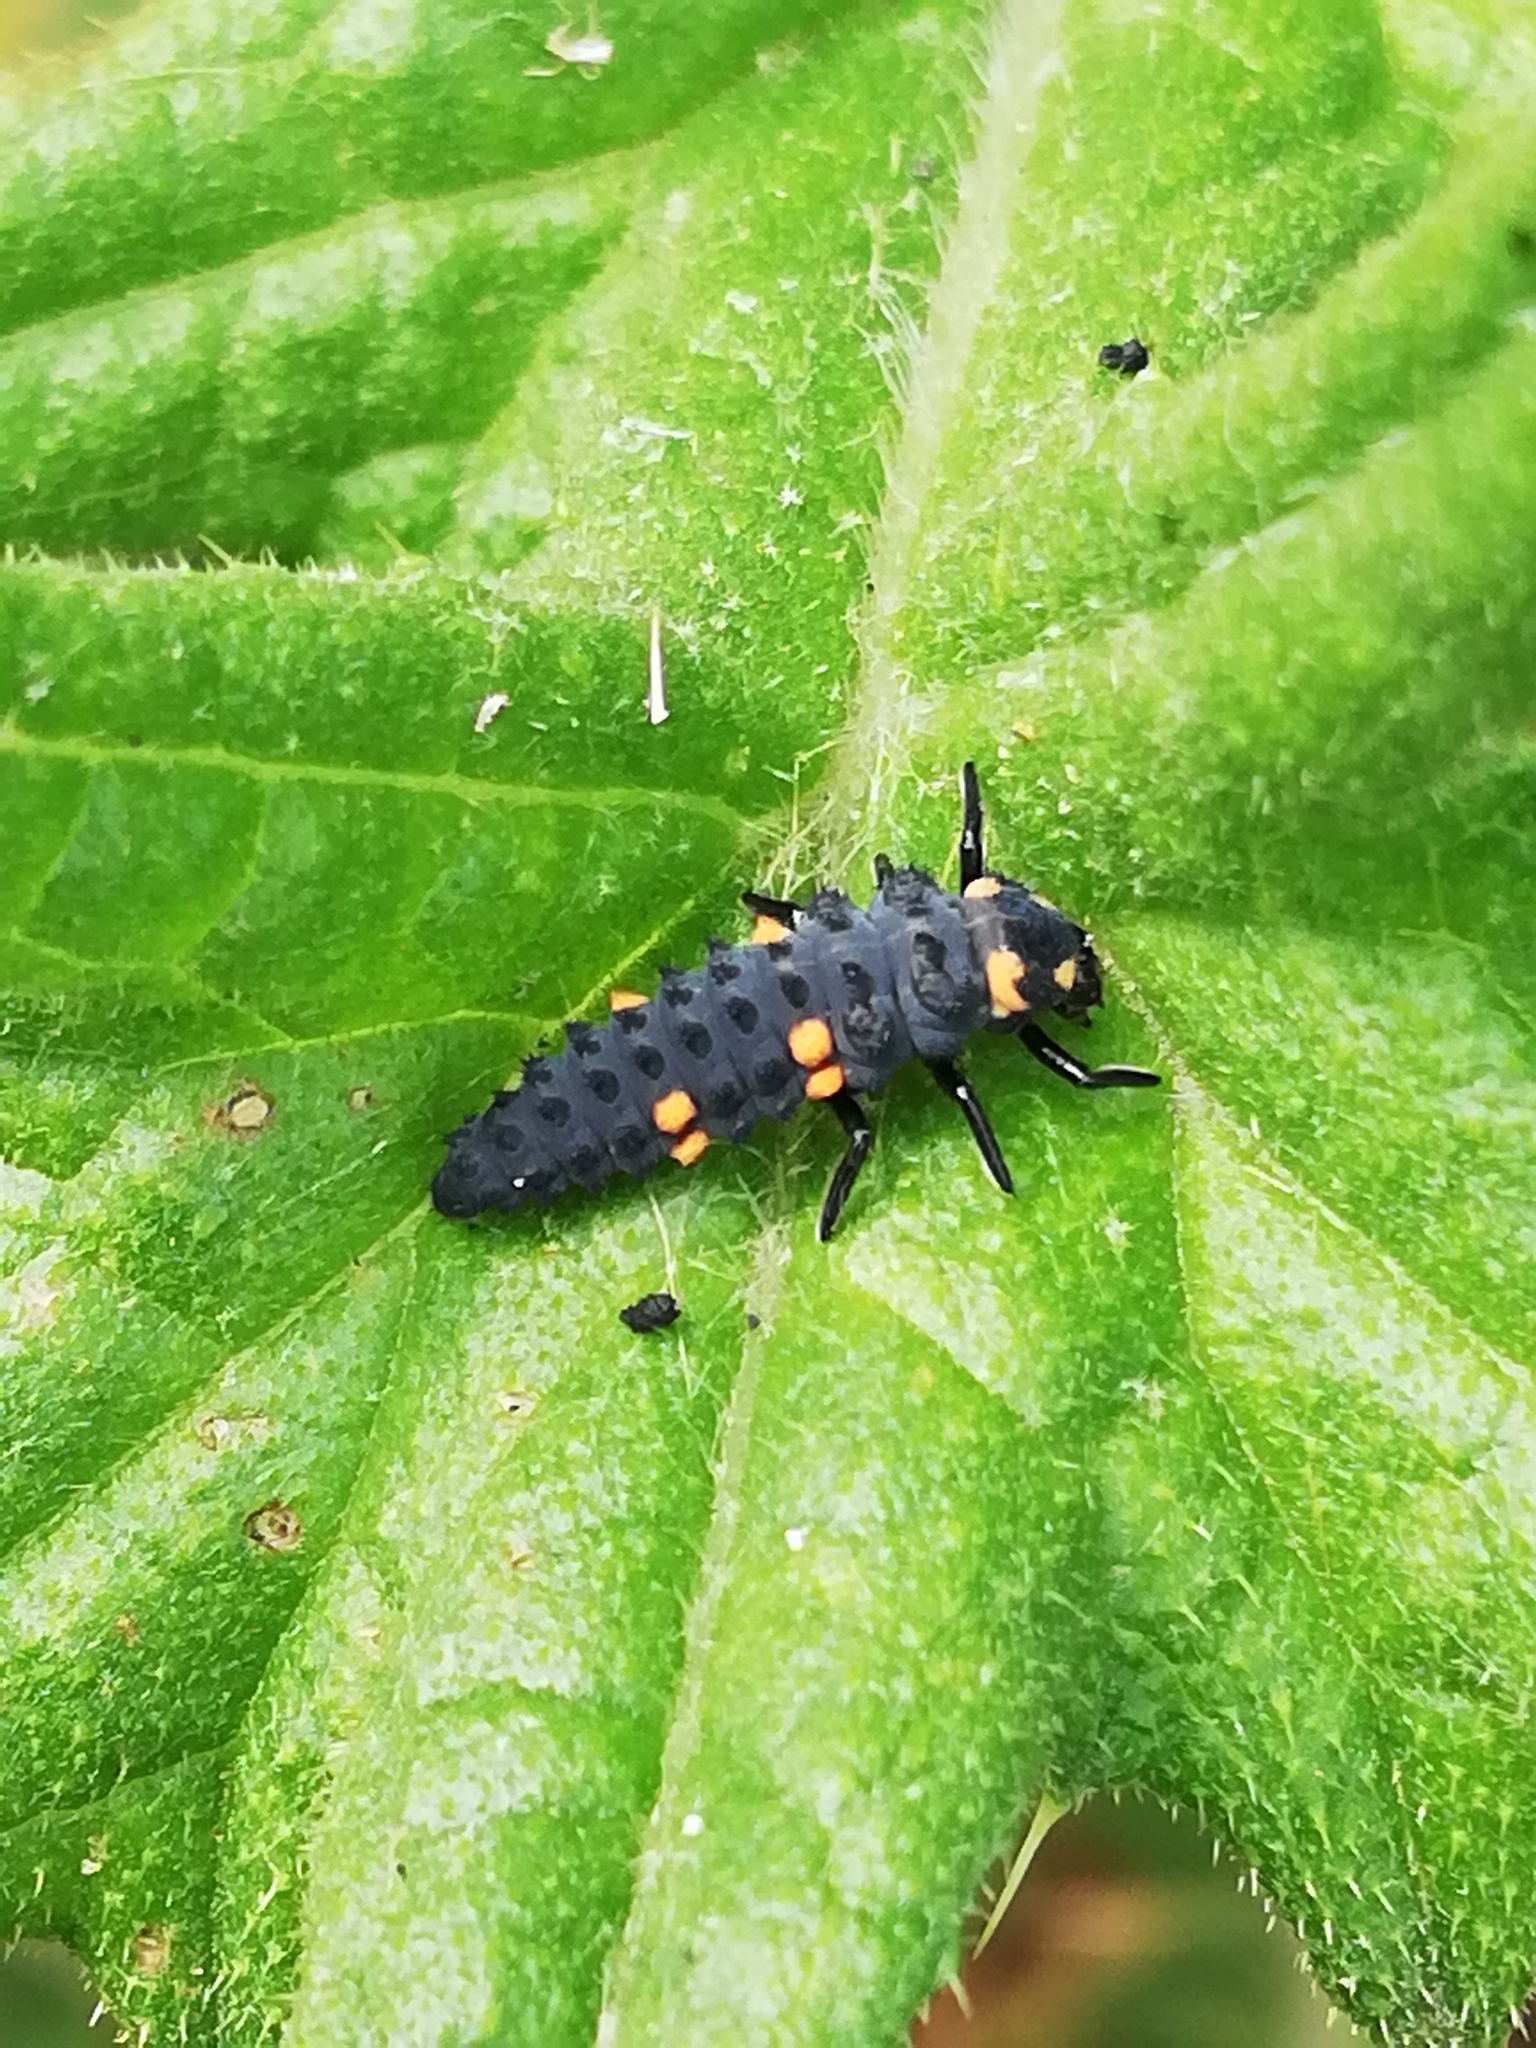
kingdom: Animalia
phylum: Arthropoda
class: Insecta
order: Coleoptera
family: Coccinellidae
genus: Coccinella
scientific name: Coccinella septempunctata
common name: Sevenspotted lady beetle
